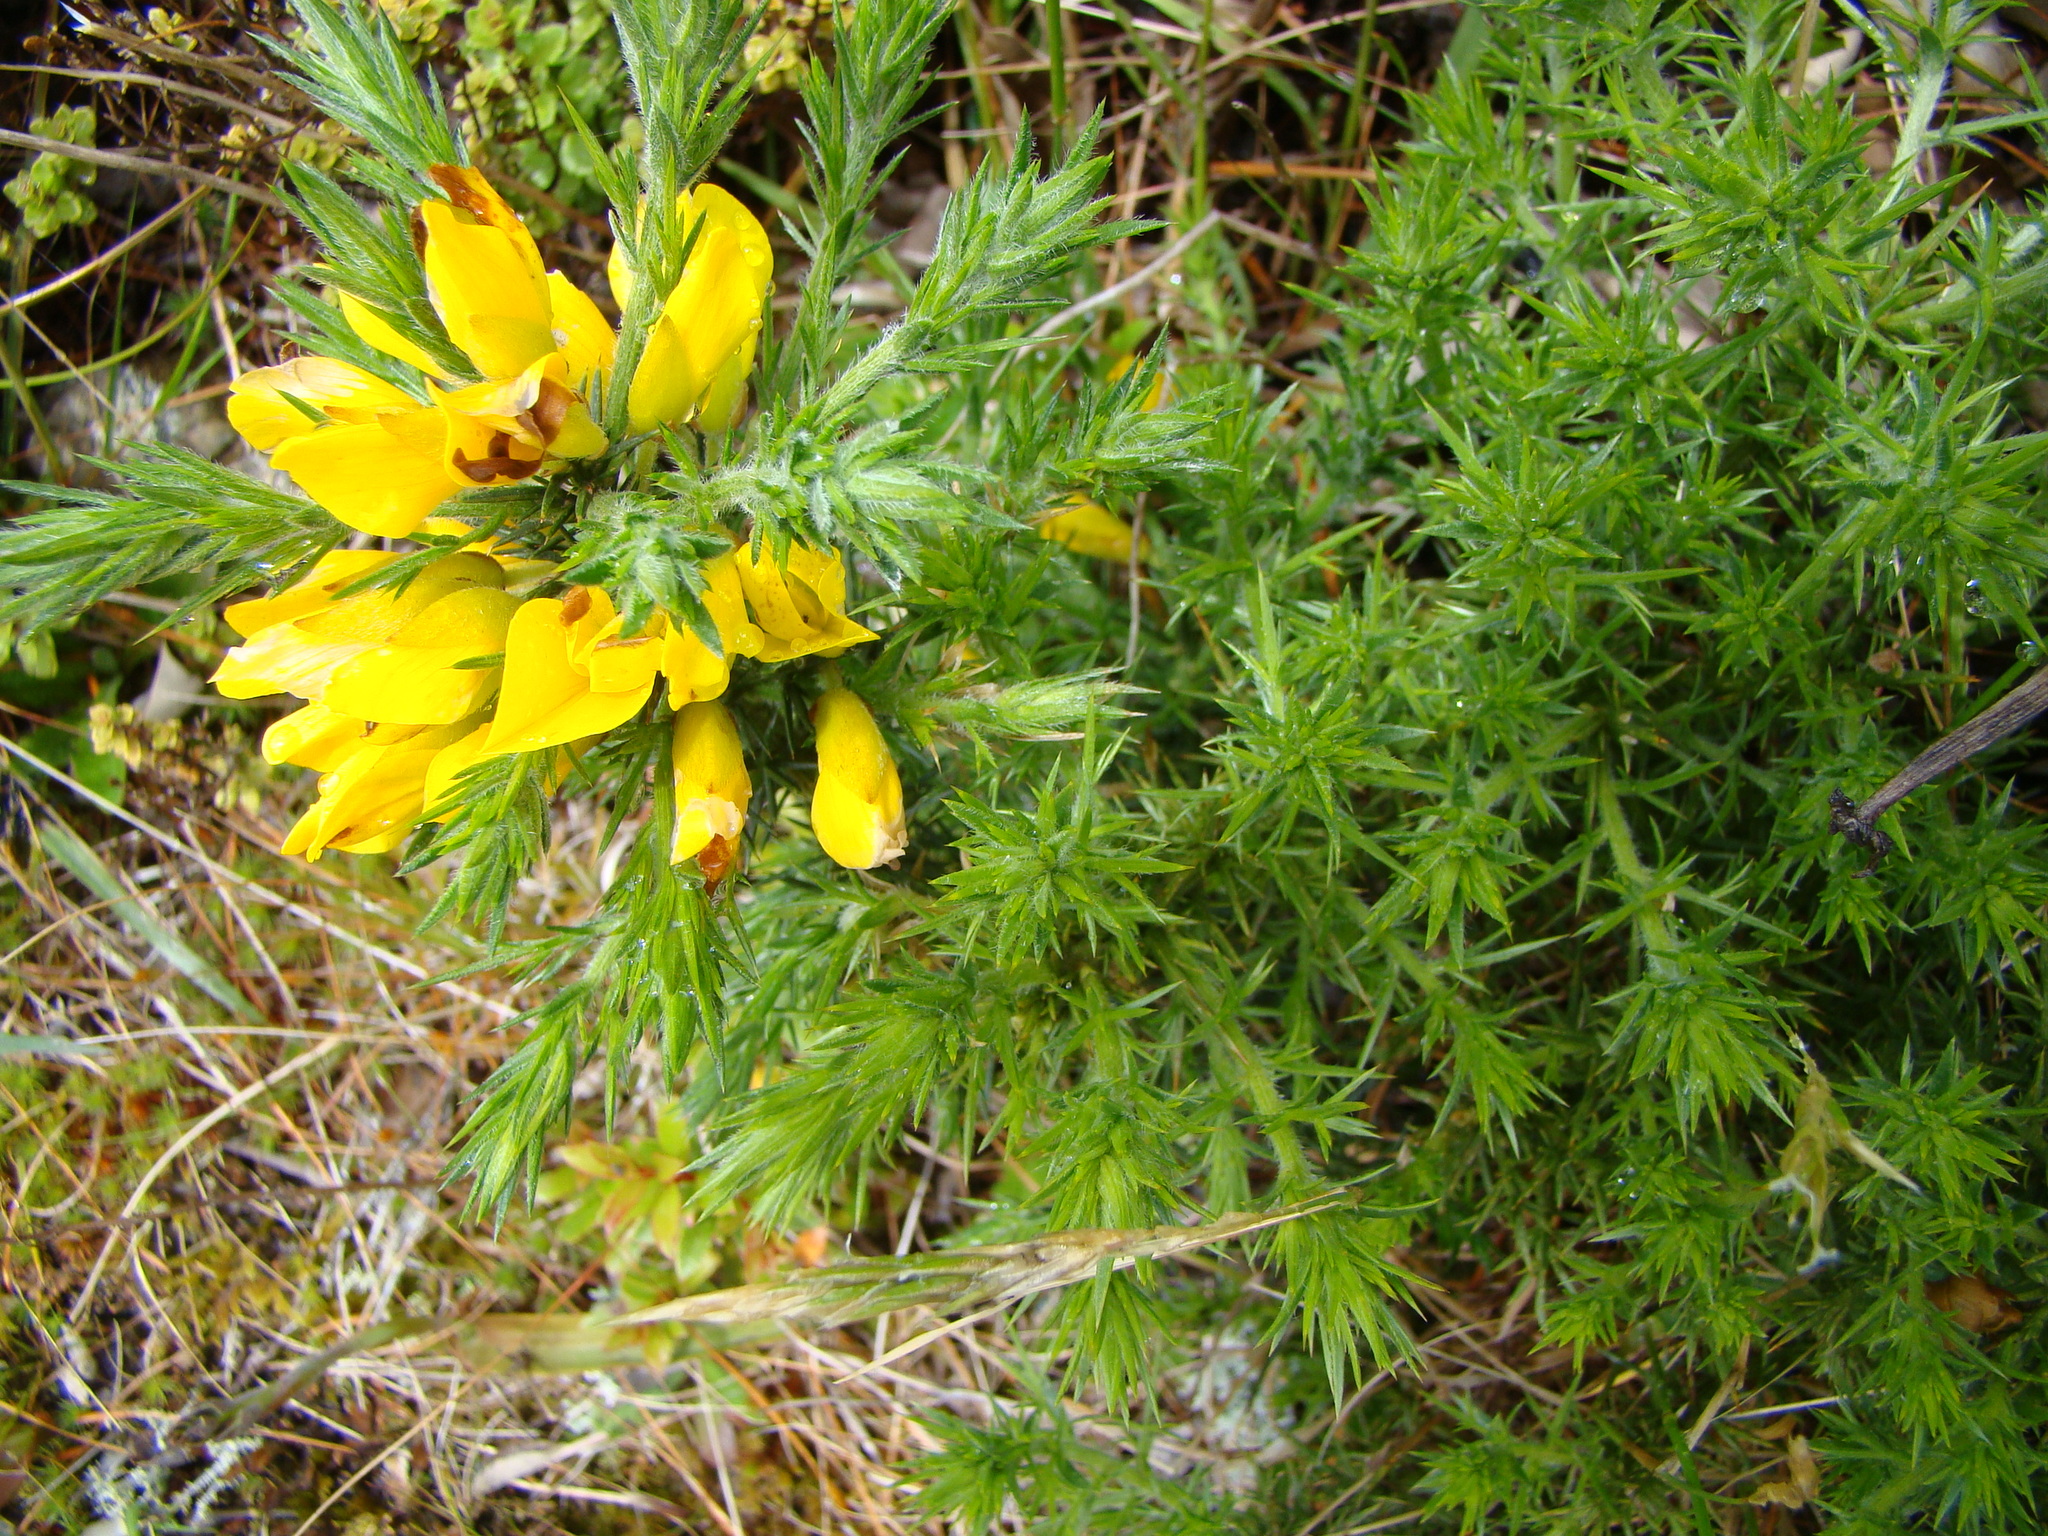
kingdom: Plantae
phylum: Tracheophyta
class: Magnoliopsida
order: Fabales
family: Fabaceae
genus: Ulex
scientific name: Ulex europaeus
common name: Common gorse
